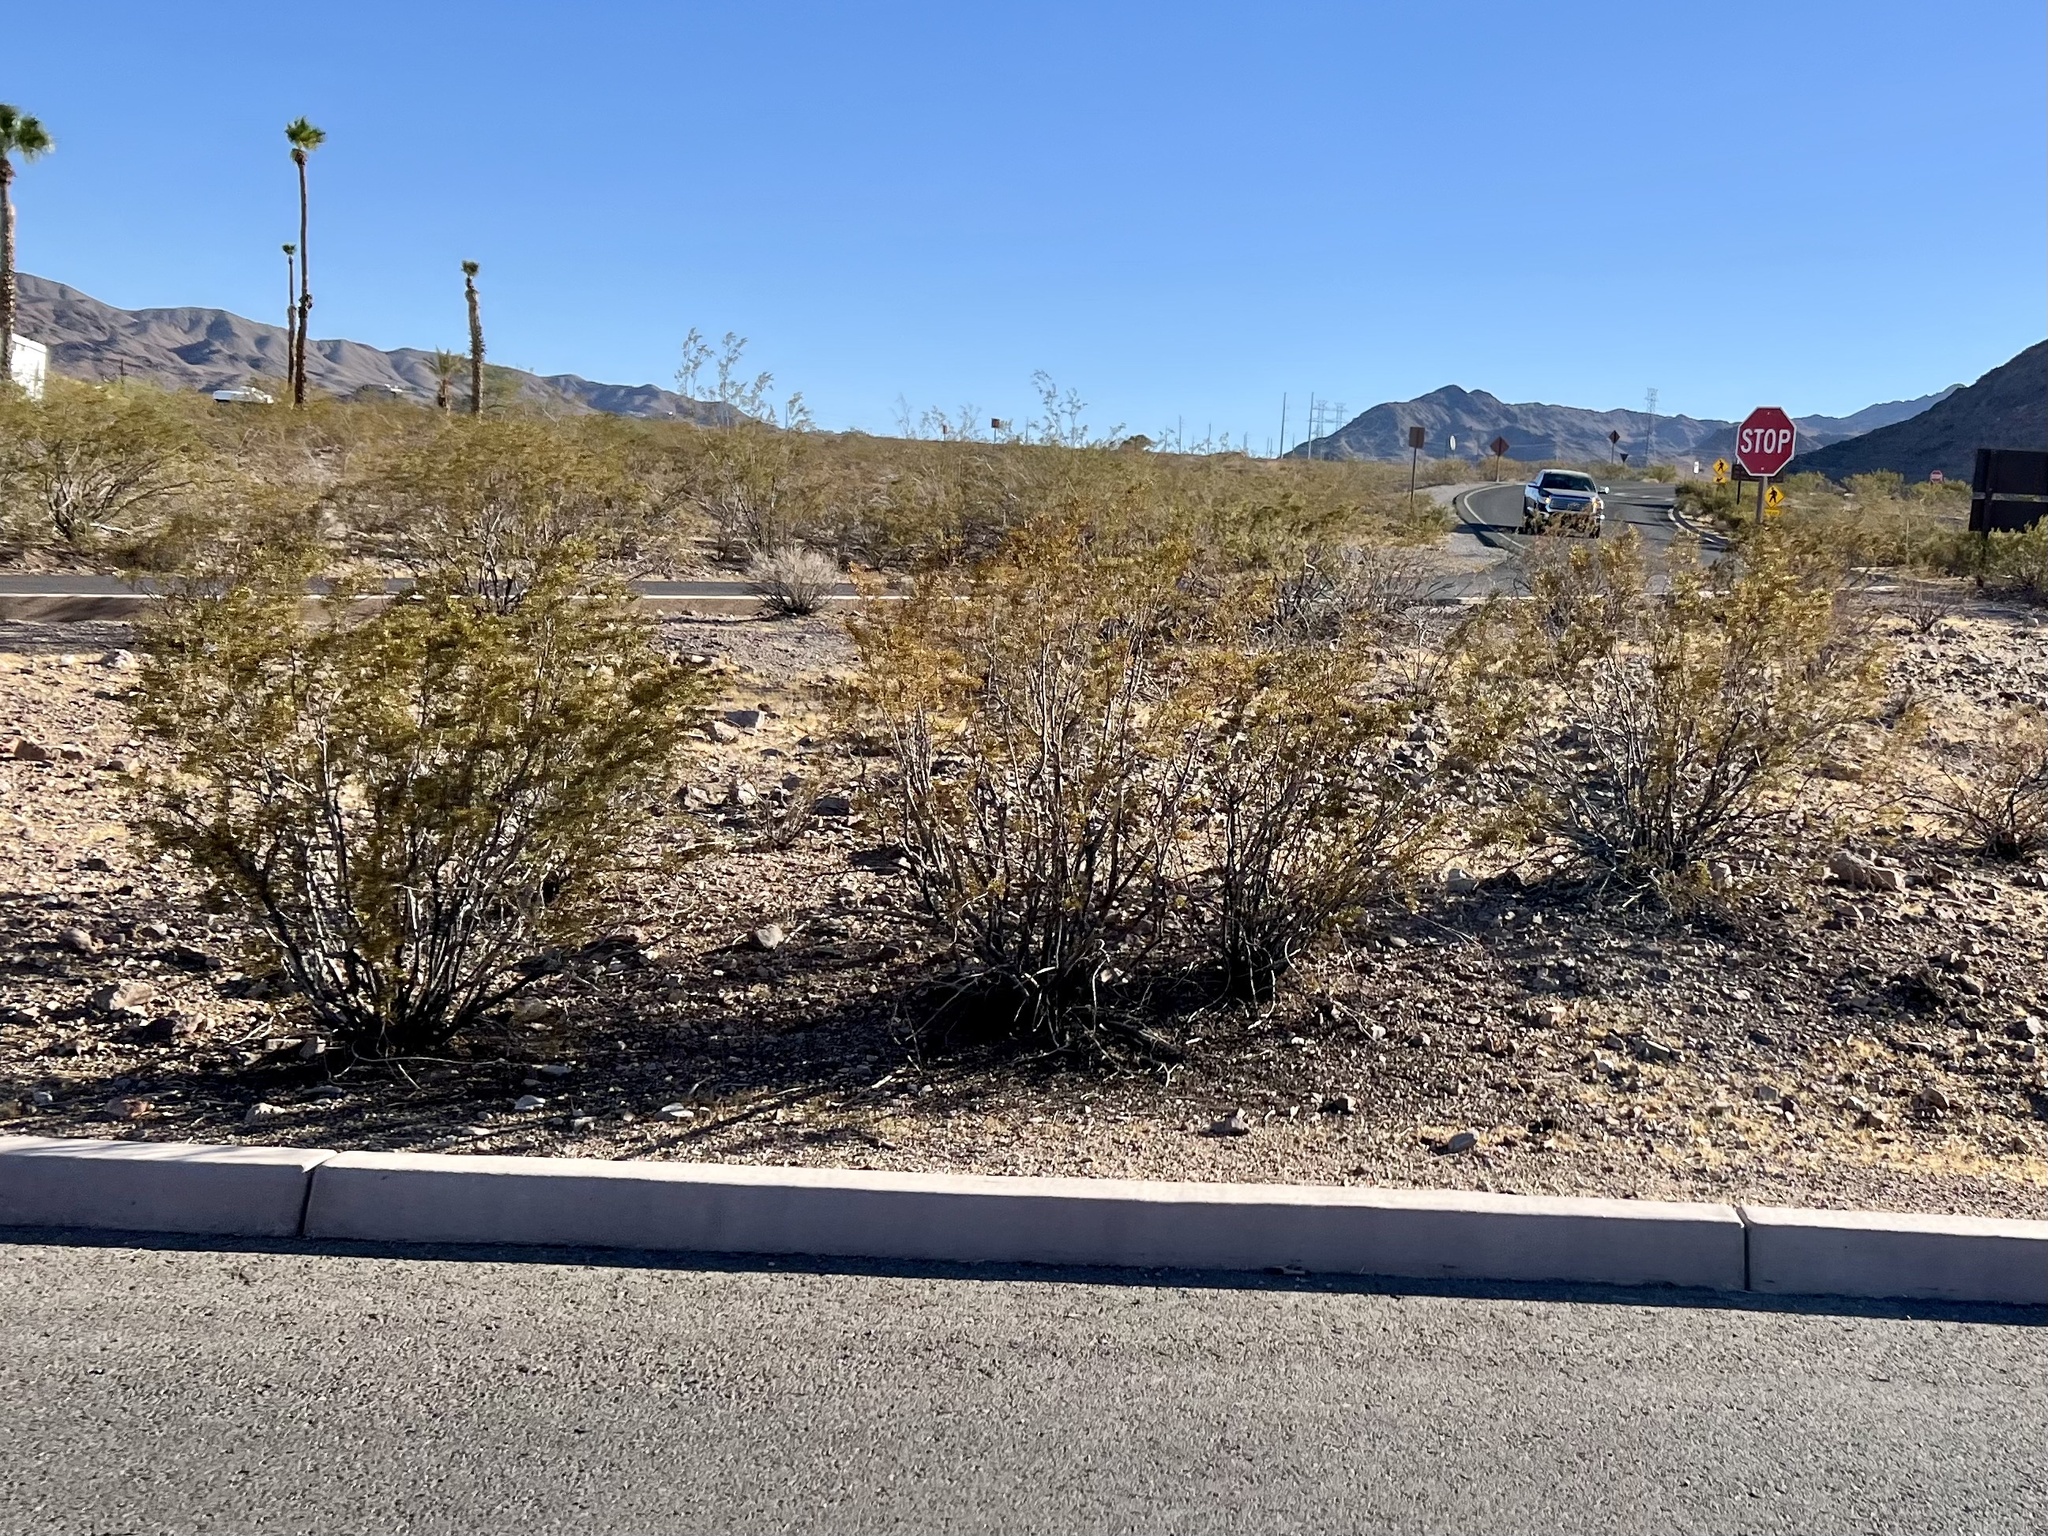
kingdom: Plantae
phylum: Tracheophyta
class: Magnoliopsida
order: Zygophyllales
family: Zygophyllaceae
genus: Larrea
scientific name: Larrea tridentata
